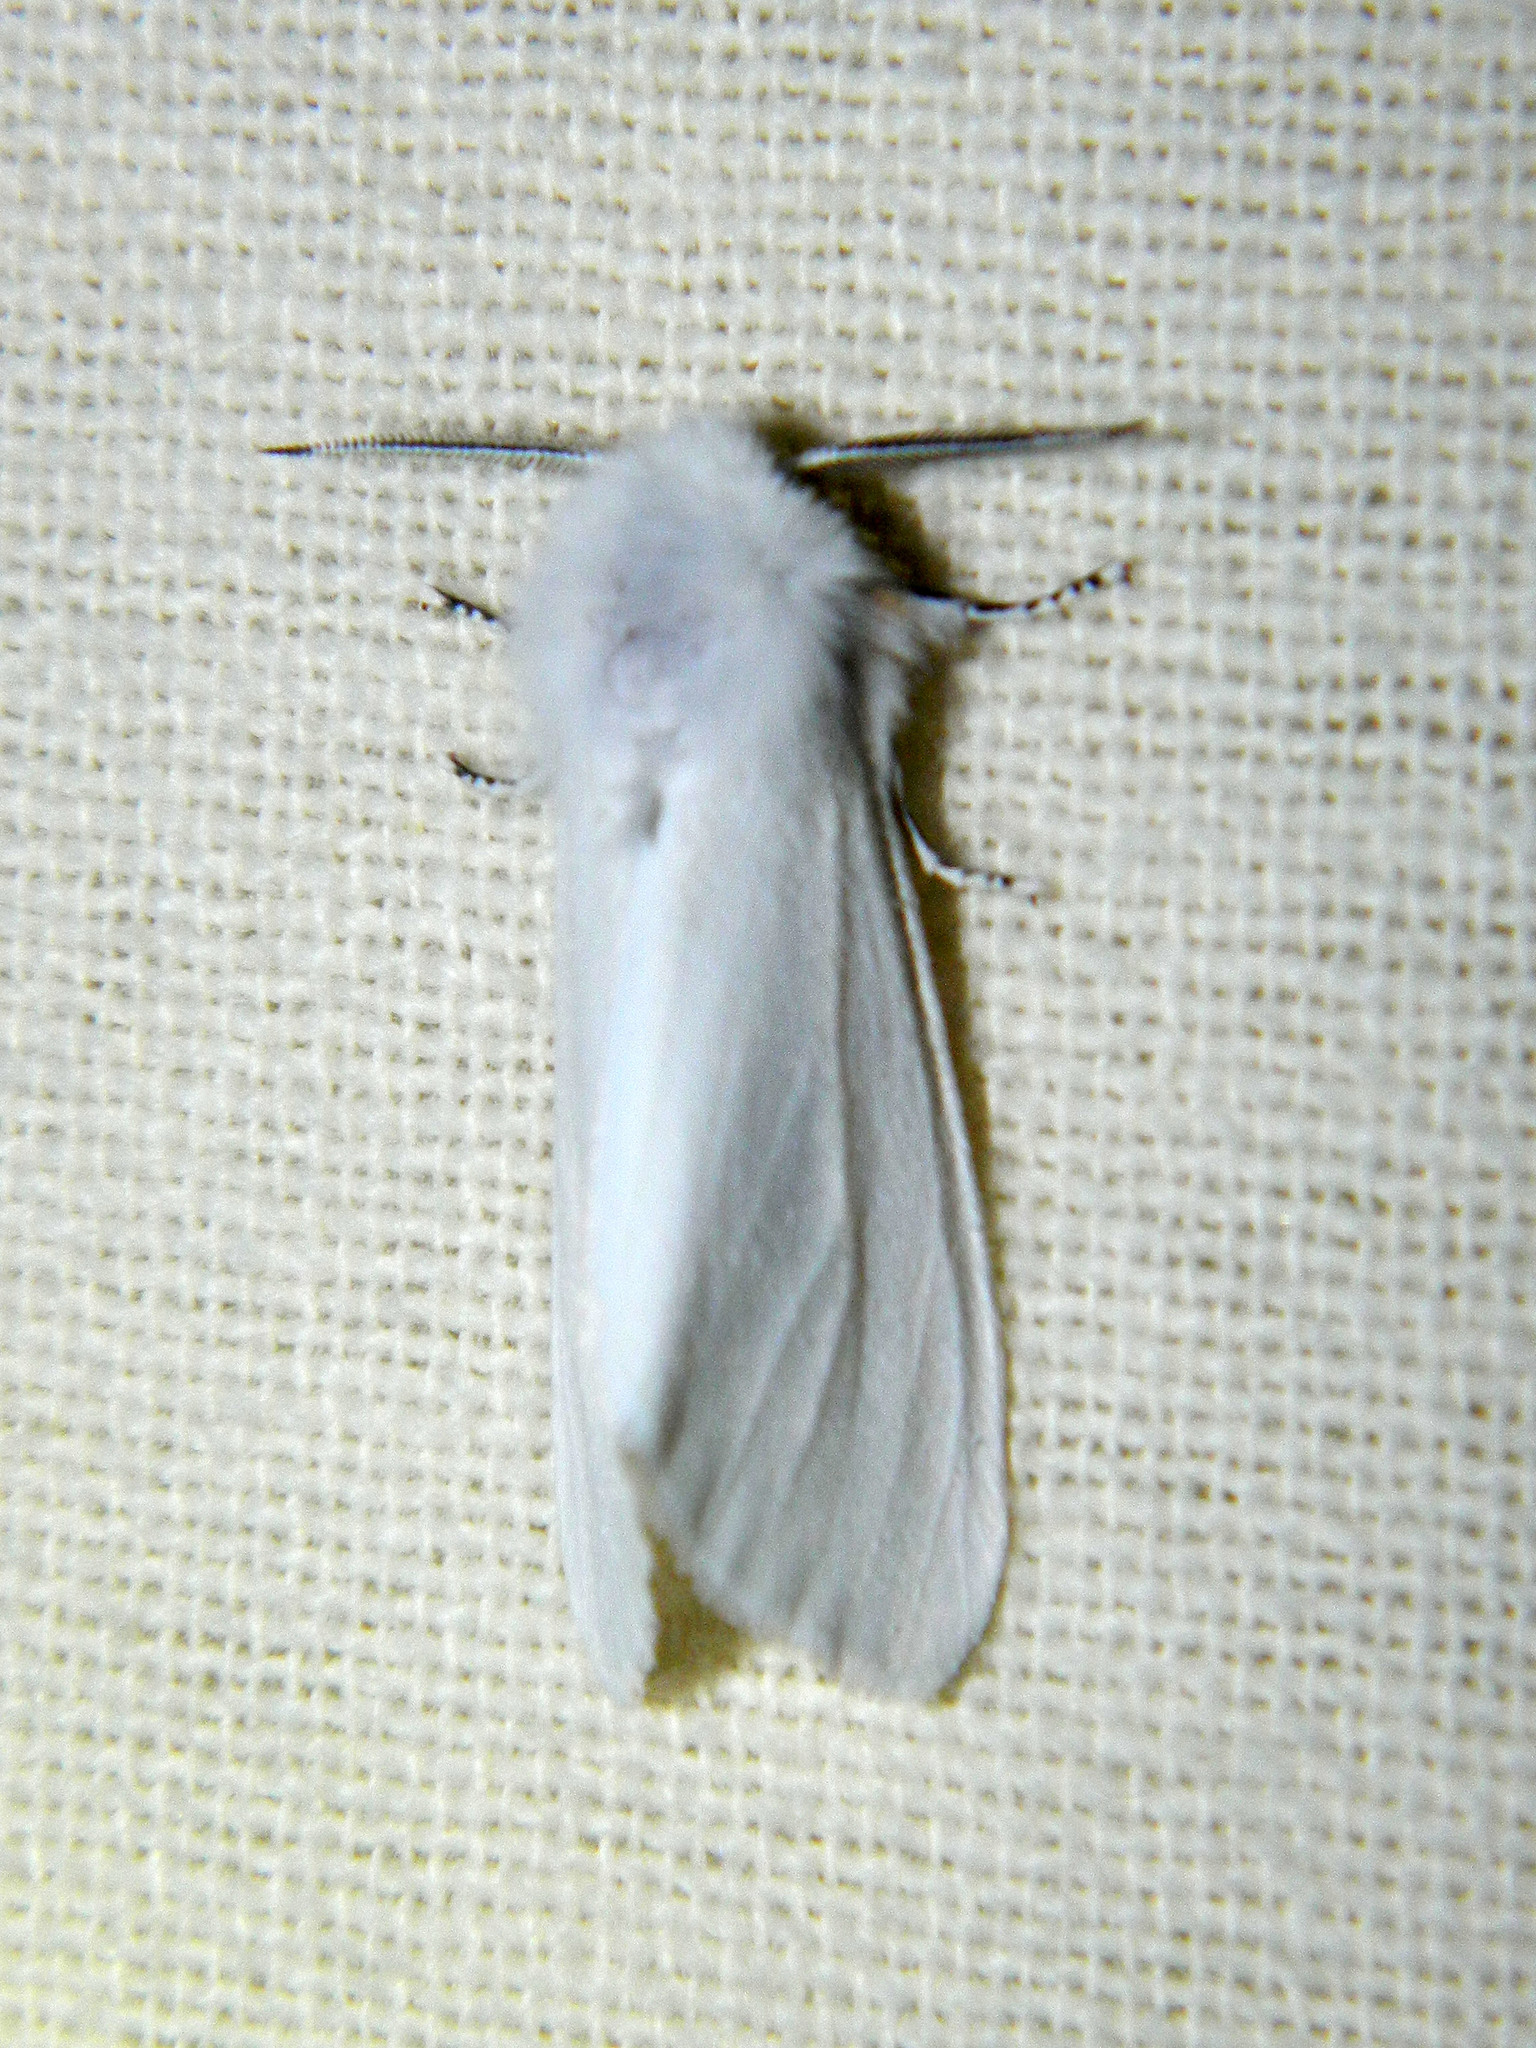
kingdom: Animalia
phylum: Arthropoda
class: Insecta
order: Lepidoptera
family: Erebidae
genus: Hyphantria
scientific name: Hyphantria cunea
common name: American white moth
